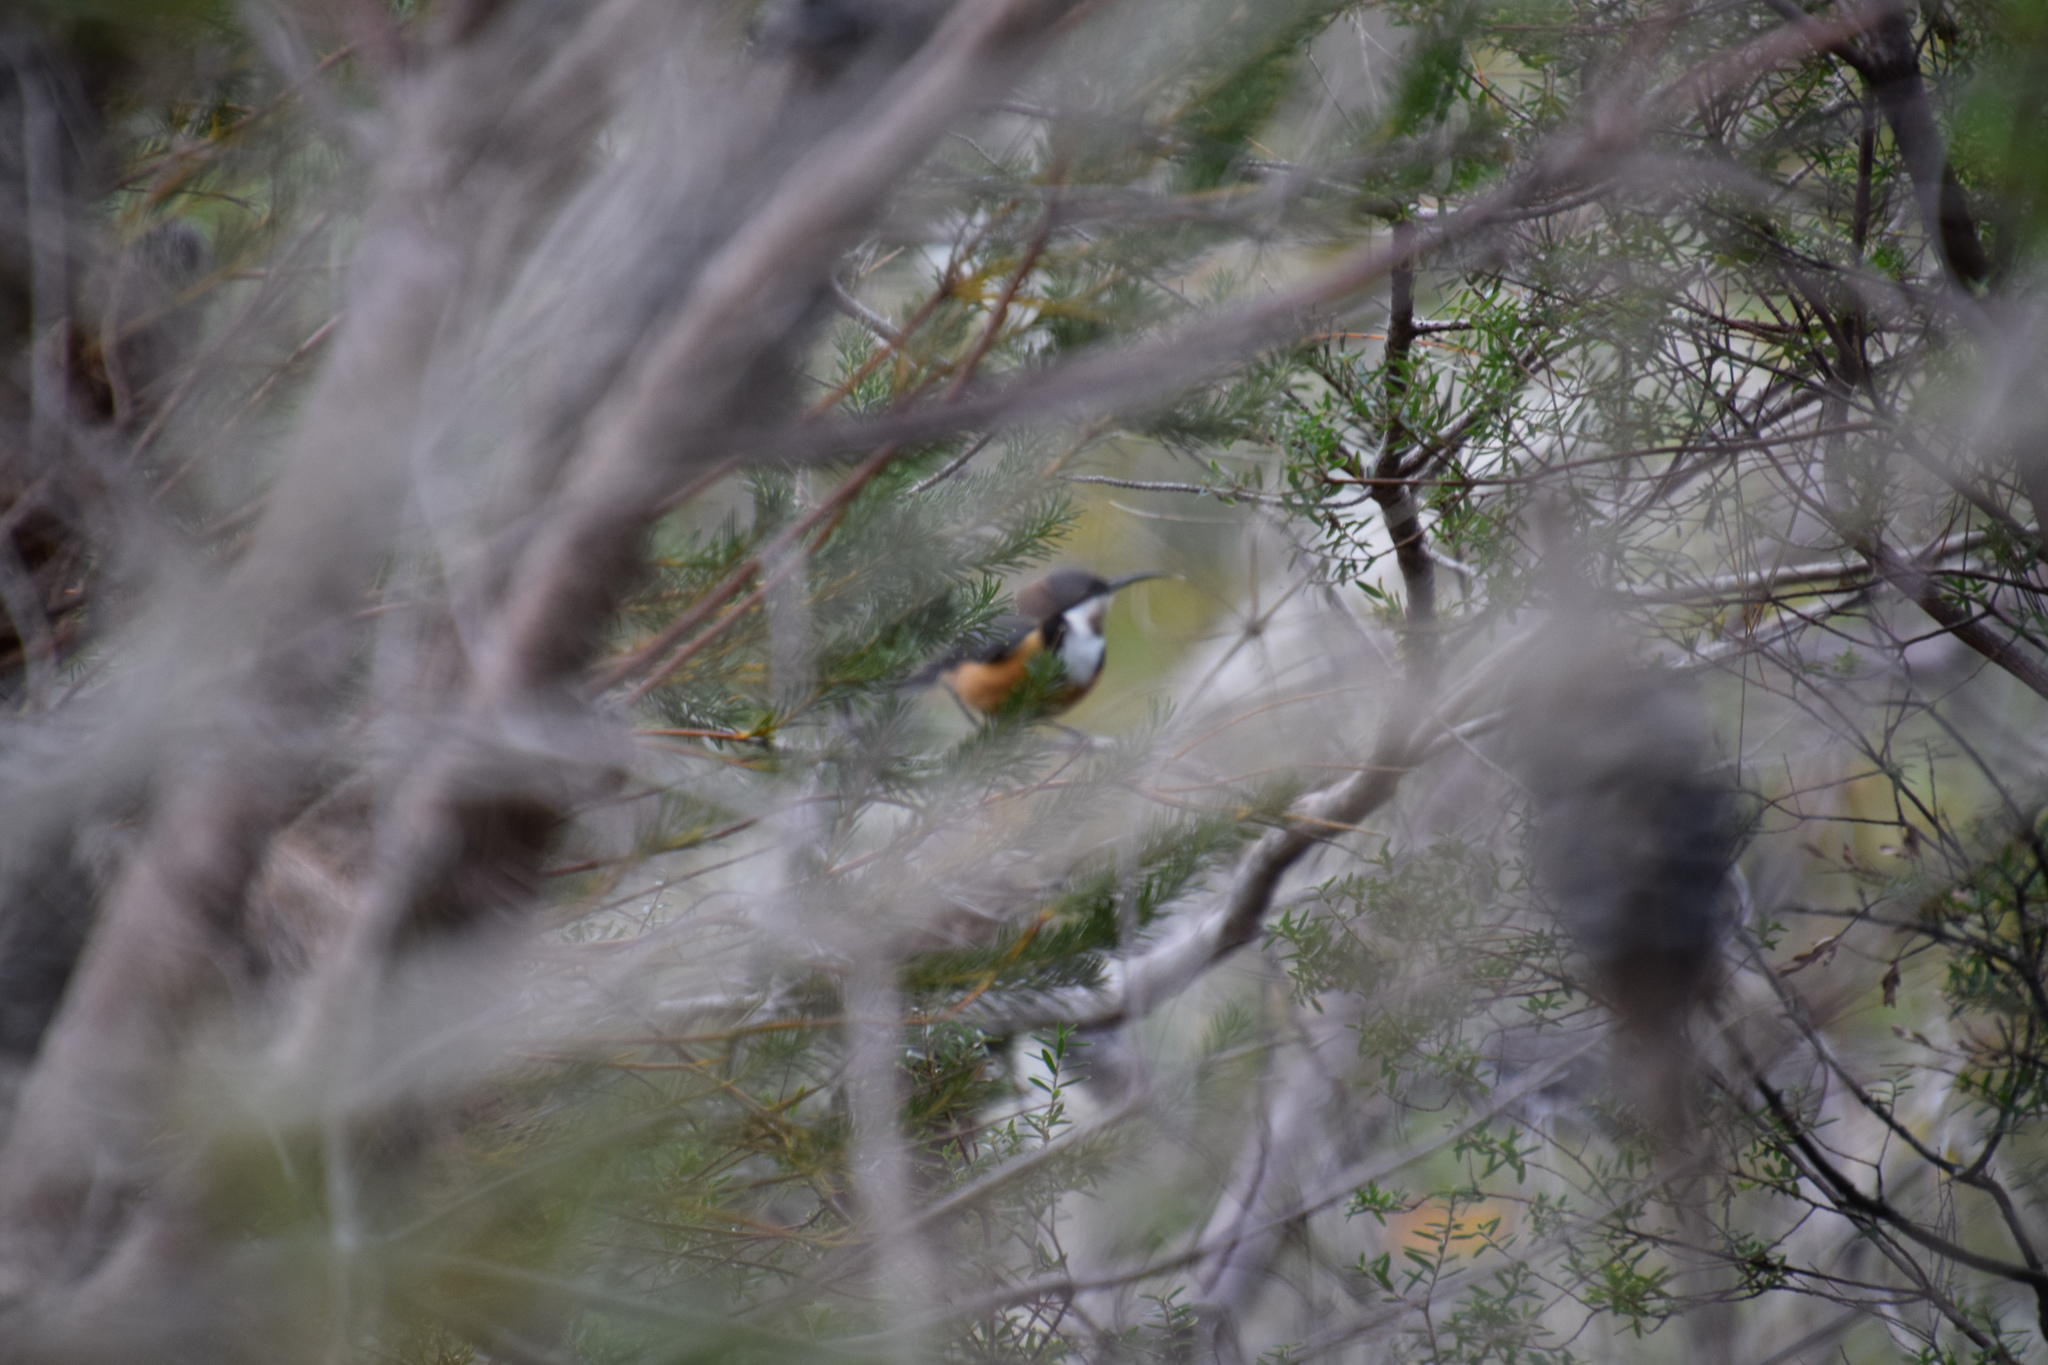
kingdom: Animalia
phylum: Chordata
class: Aves
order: Passeriformes
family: Meliphagidae
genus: Acanthorhynchus
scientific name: Acanthorhynchus tenuirostris
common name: Eastern spinebill
